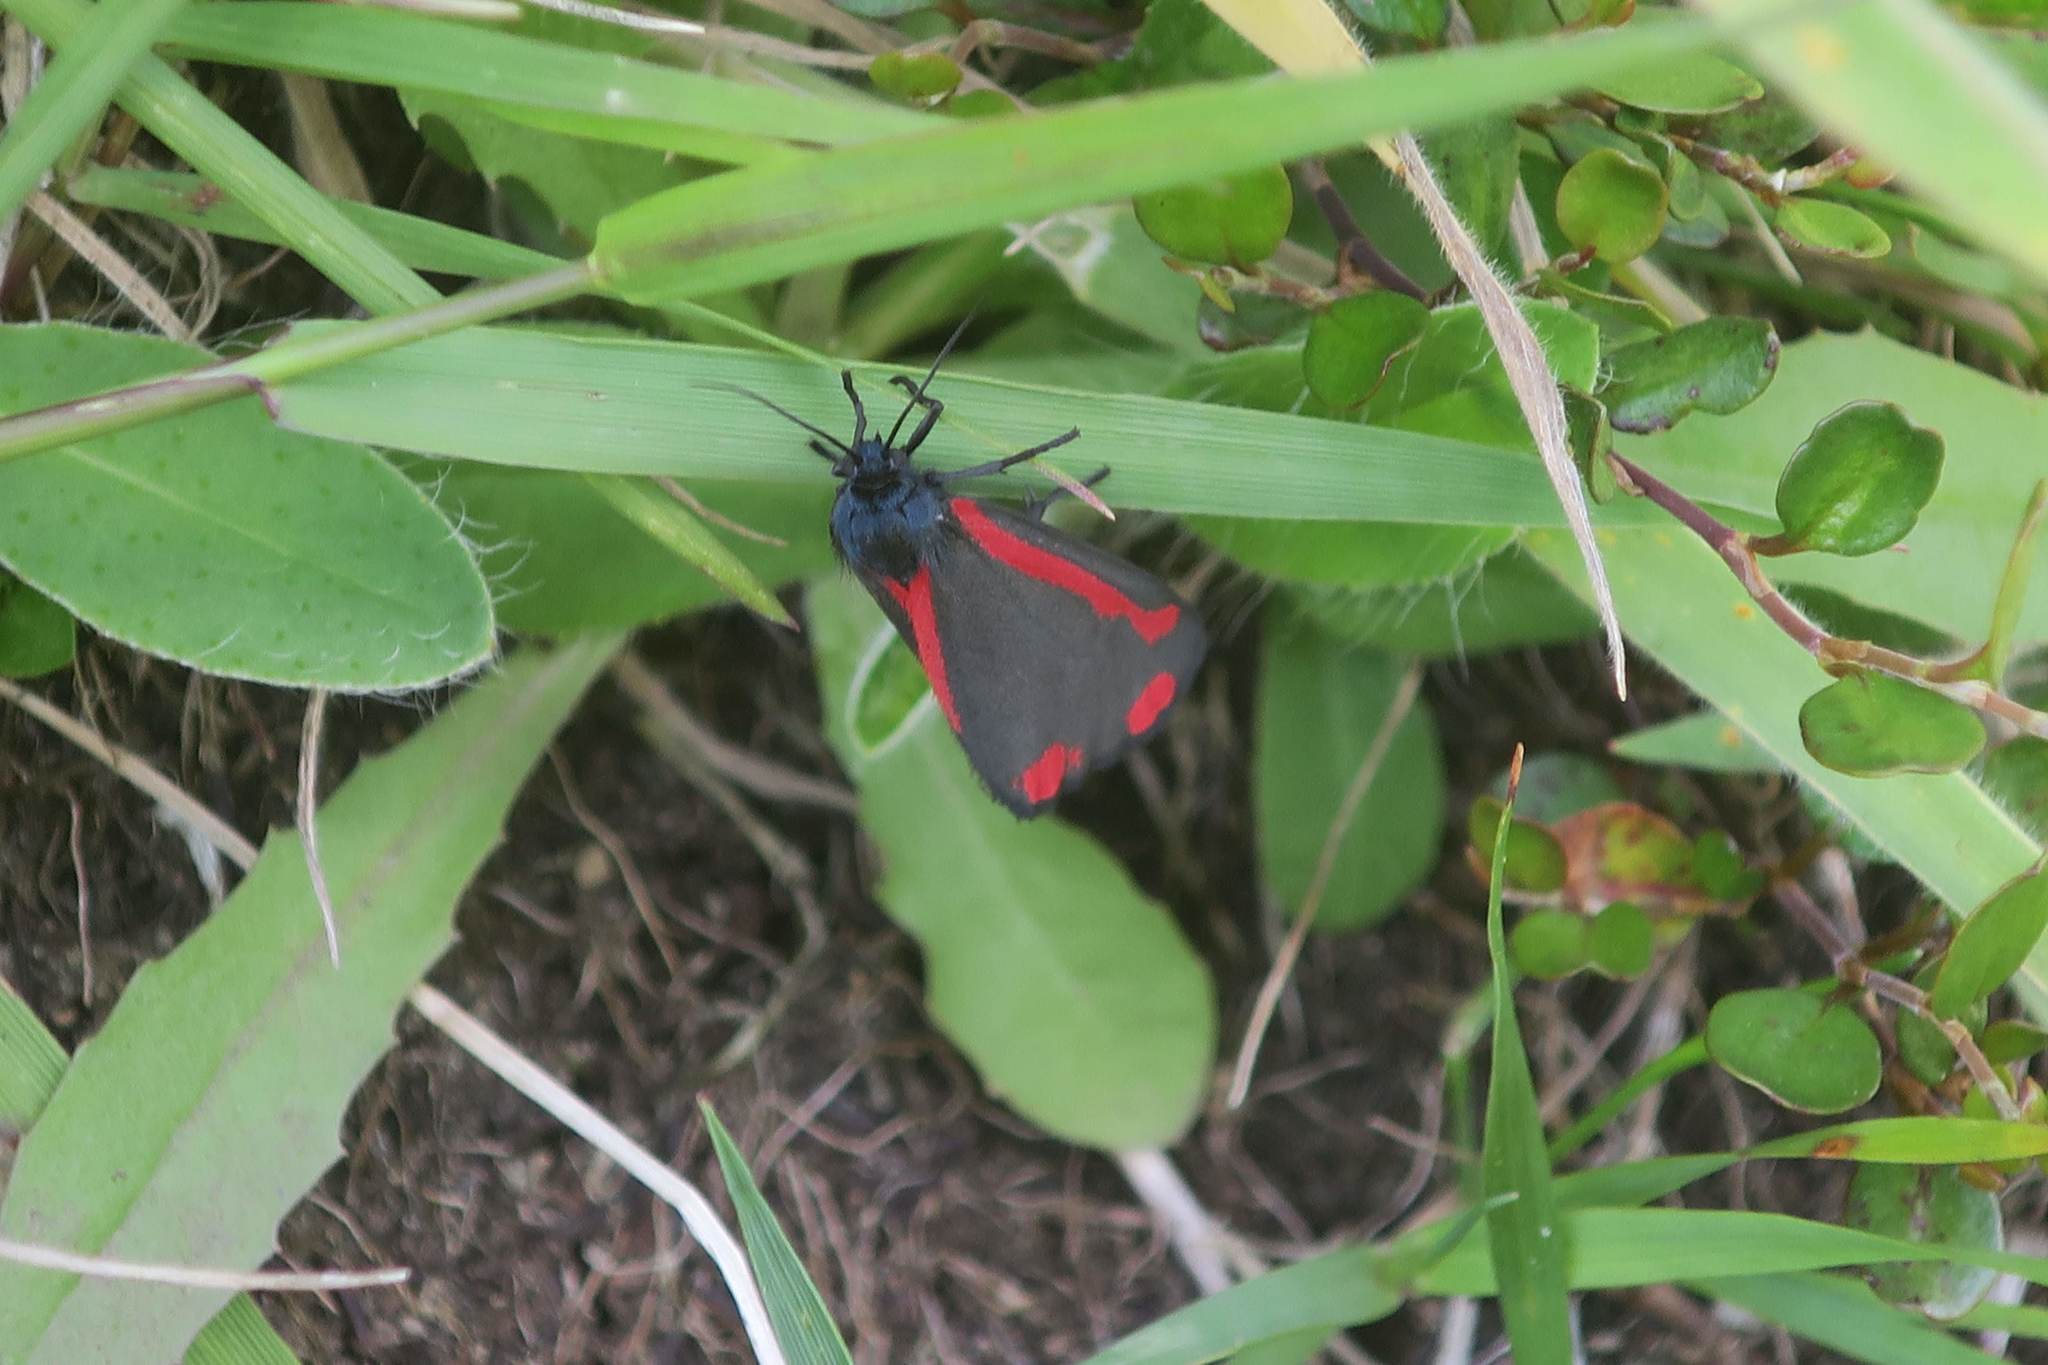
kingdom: Animalia
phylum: Arthropoda
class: Insecta
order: Lepidoptera
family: Erebidae
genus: Tyria
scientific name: Tyria jacobaeae
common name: Cinnabar
